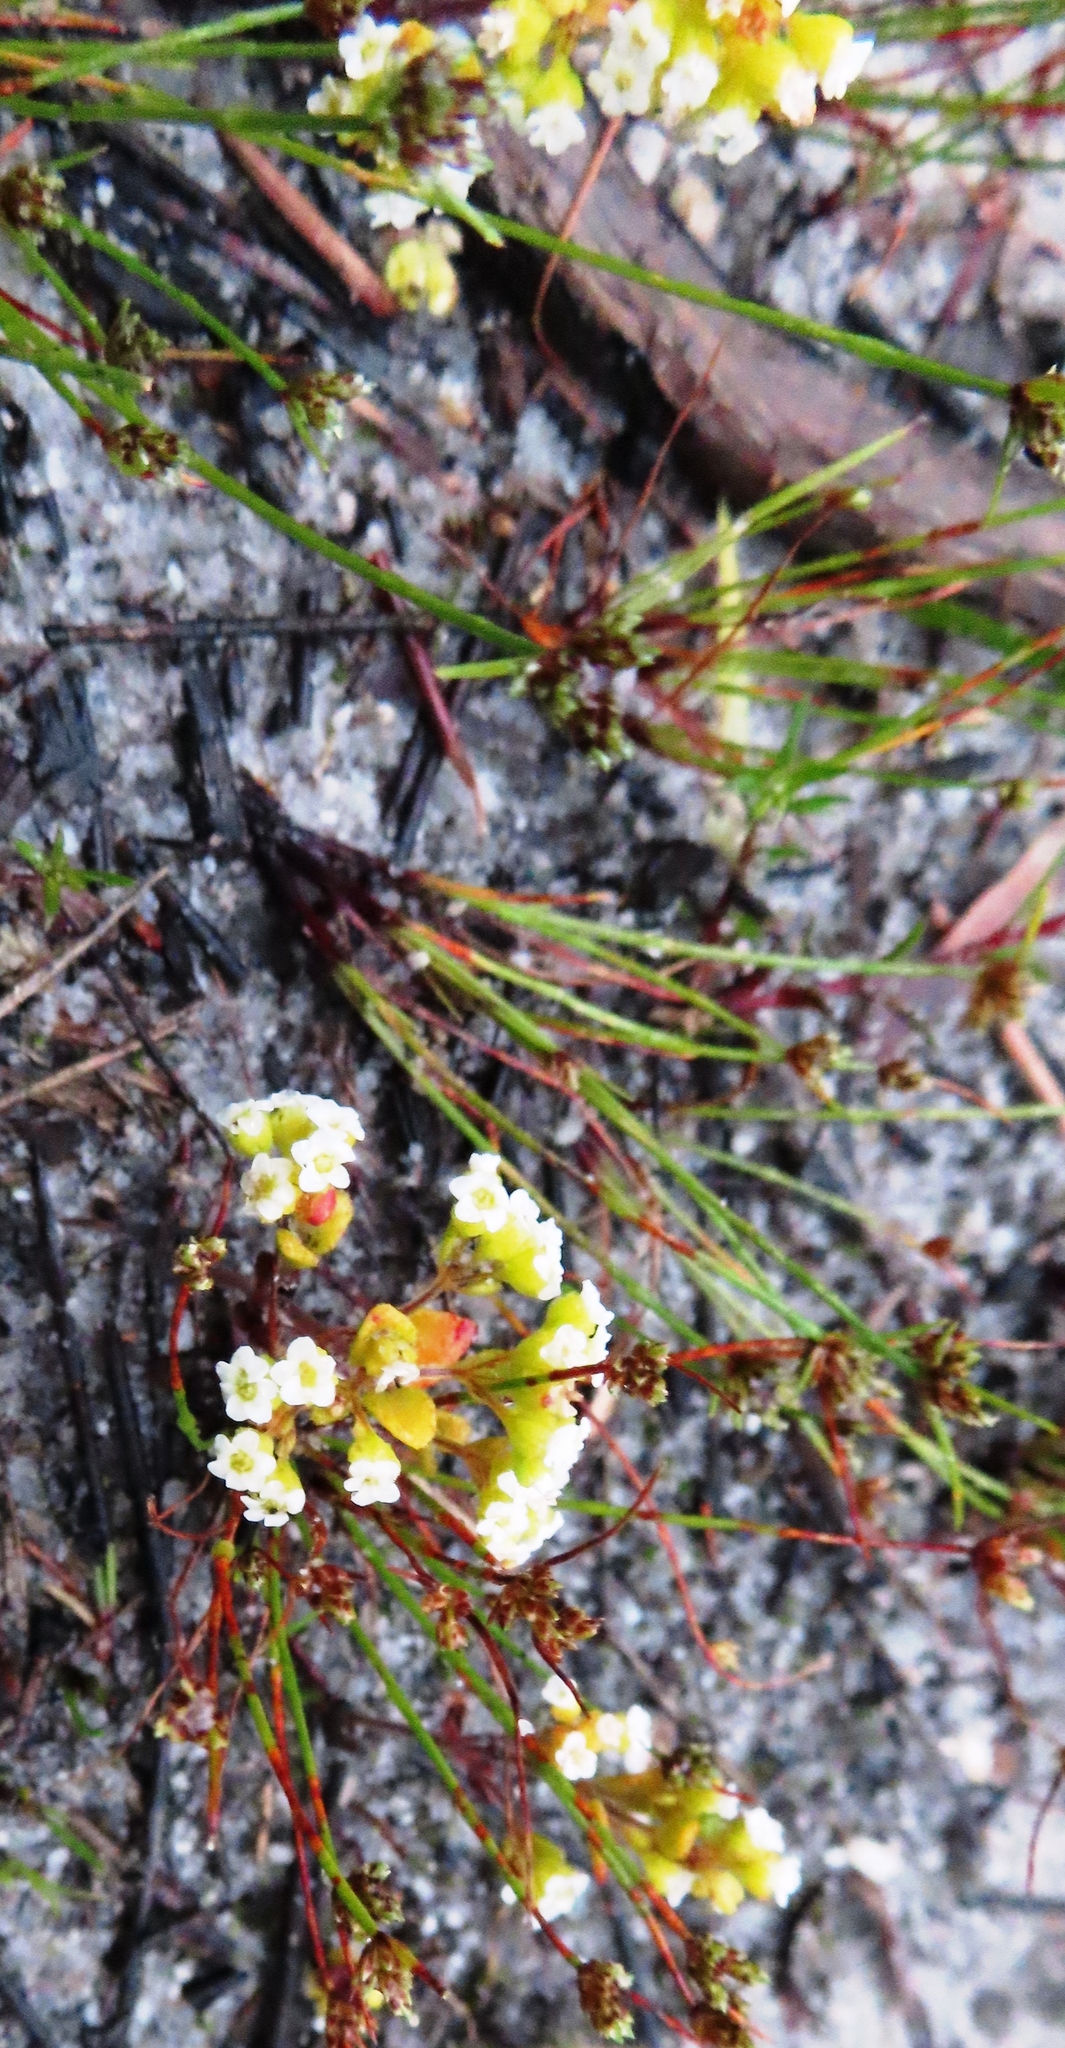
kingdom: Plantae
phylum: Tracheophyta
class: Magnoliopsida
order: Saxifragales
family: Crassulaceae
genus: Crassula
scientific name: Crassula filiformis
